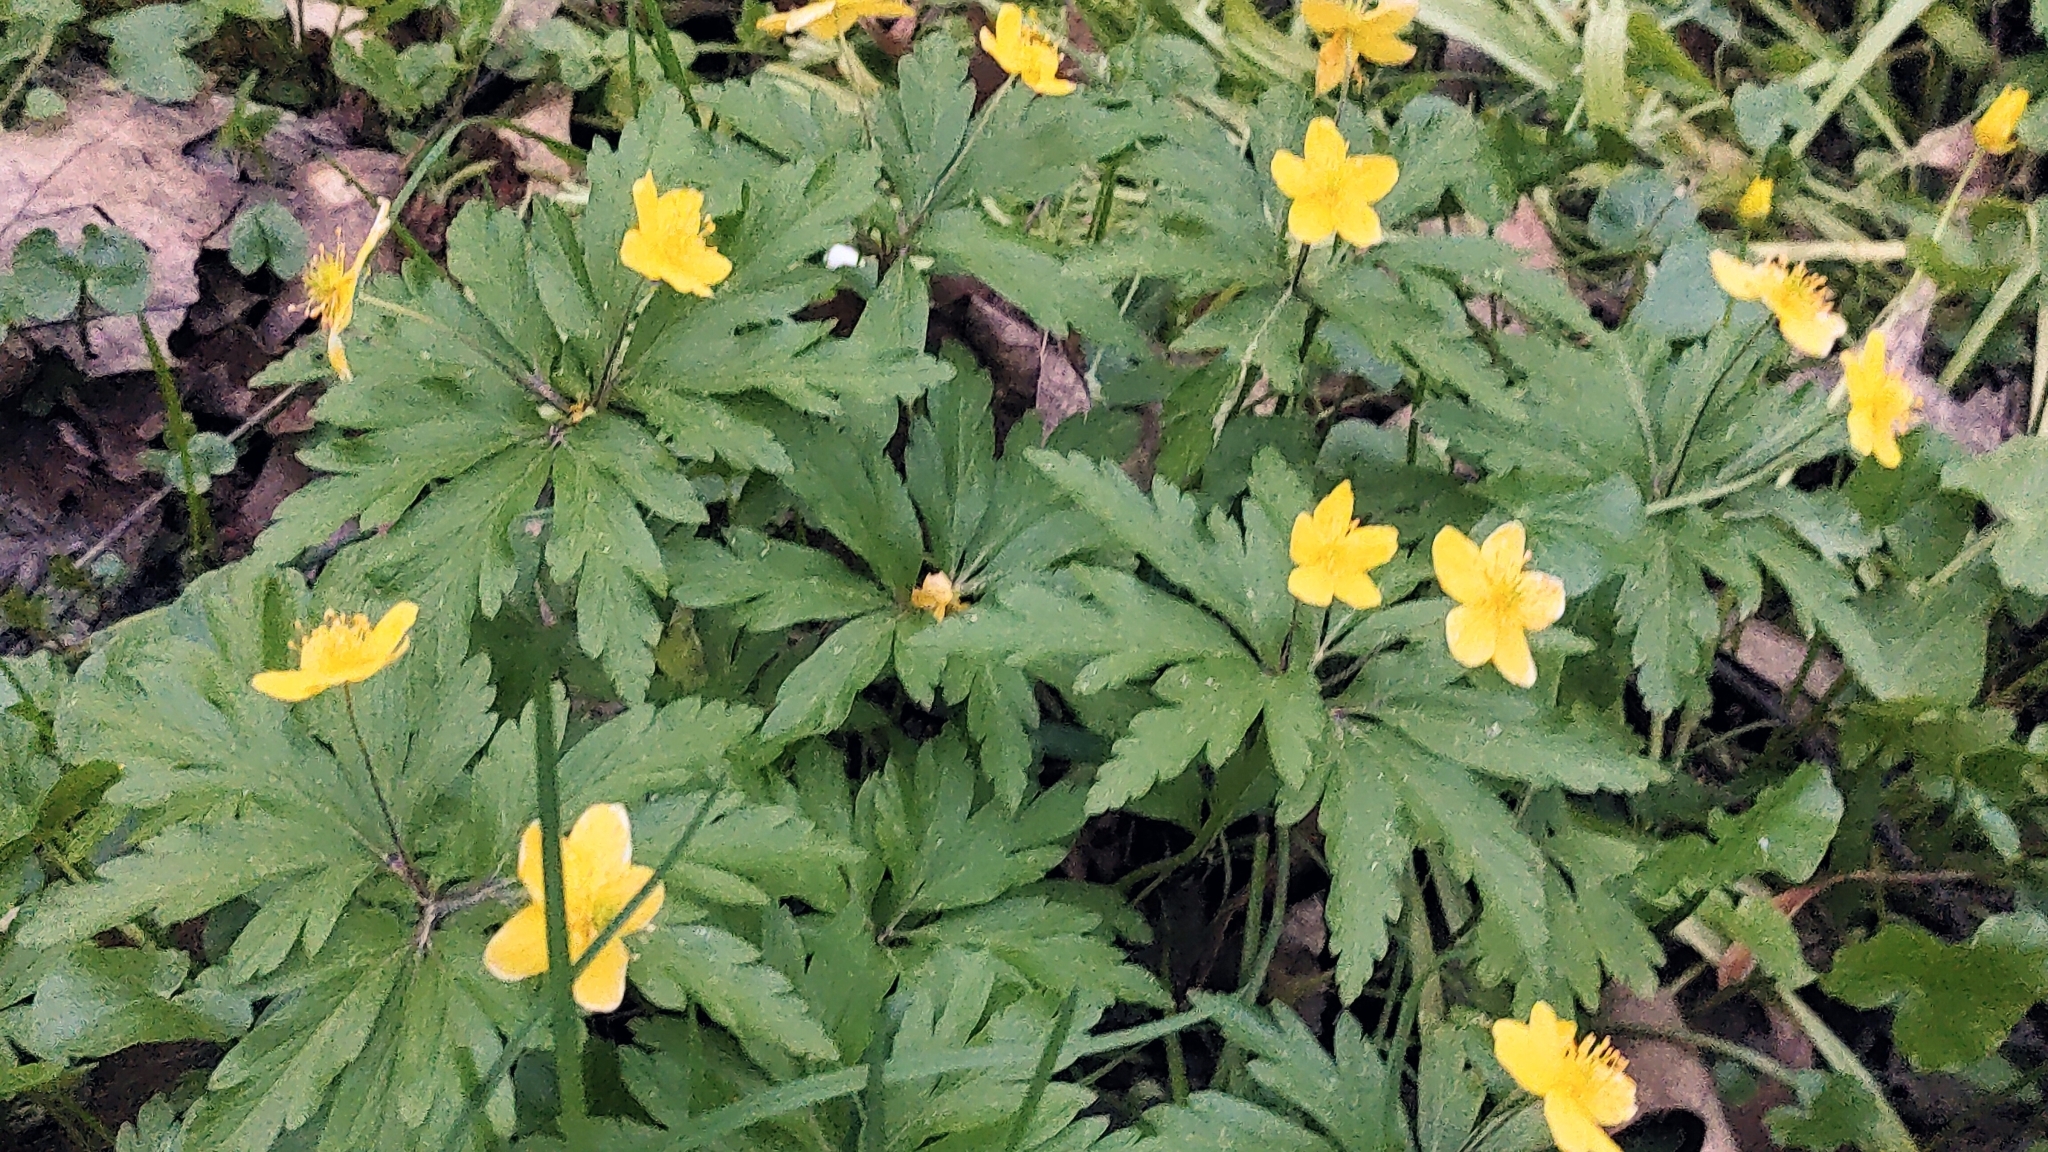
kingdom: Plantae
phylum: Tracheophyta
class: Magnoliopsida
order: Ranunculales
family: Ranunculaceae
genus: Anemone
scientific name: Anemone ranunculoides
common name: Yellow anemone
